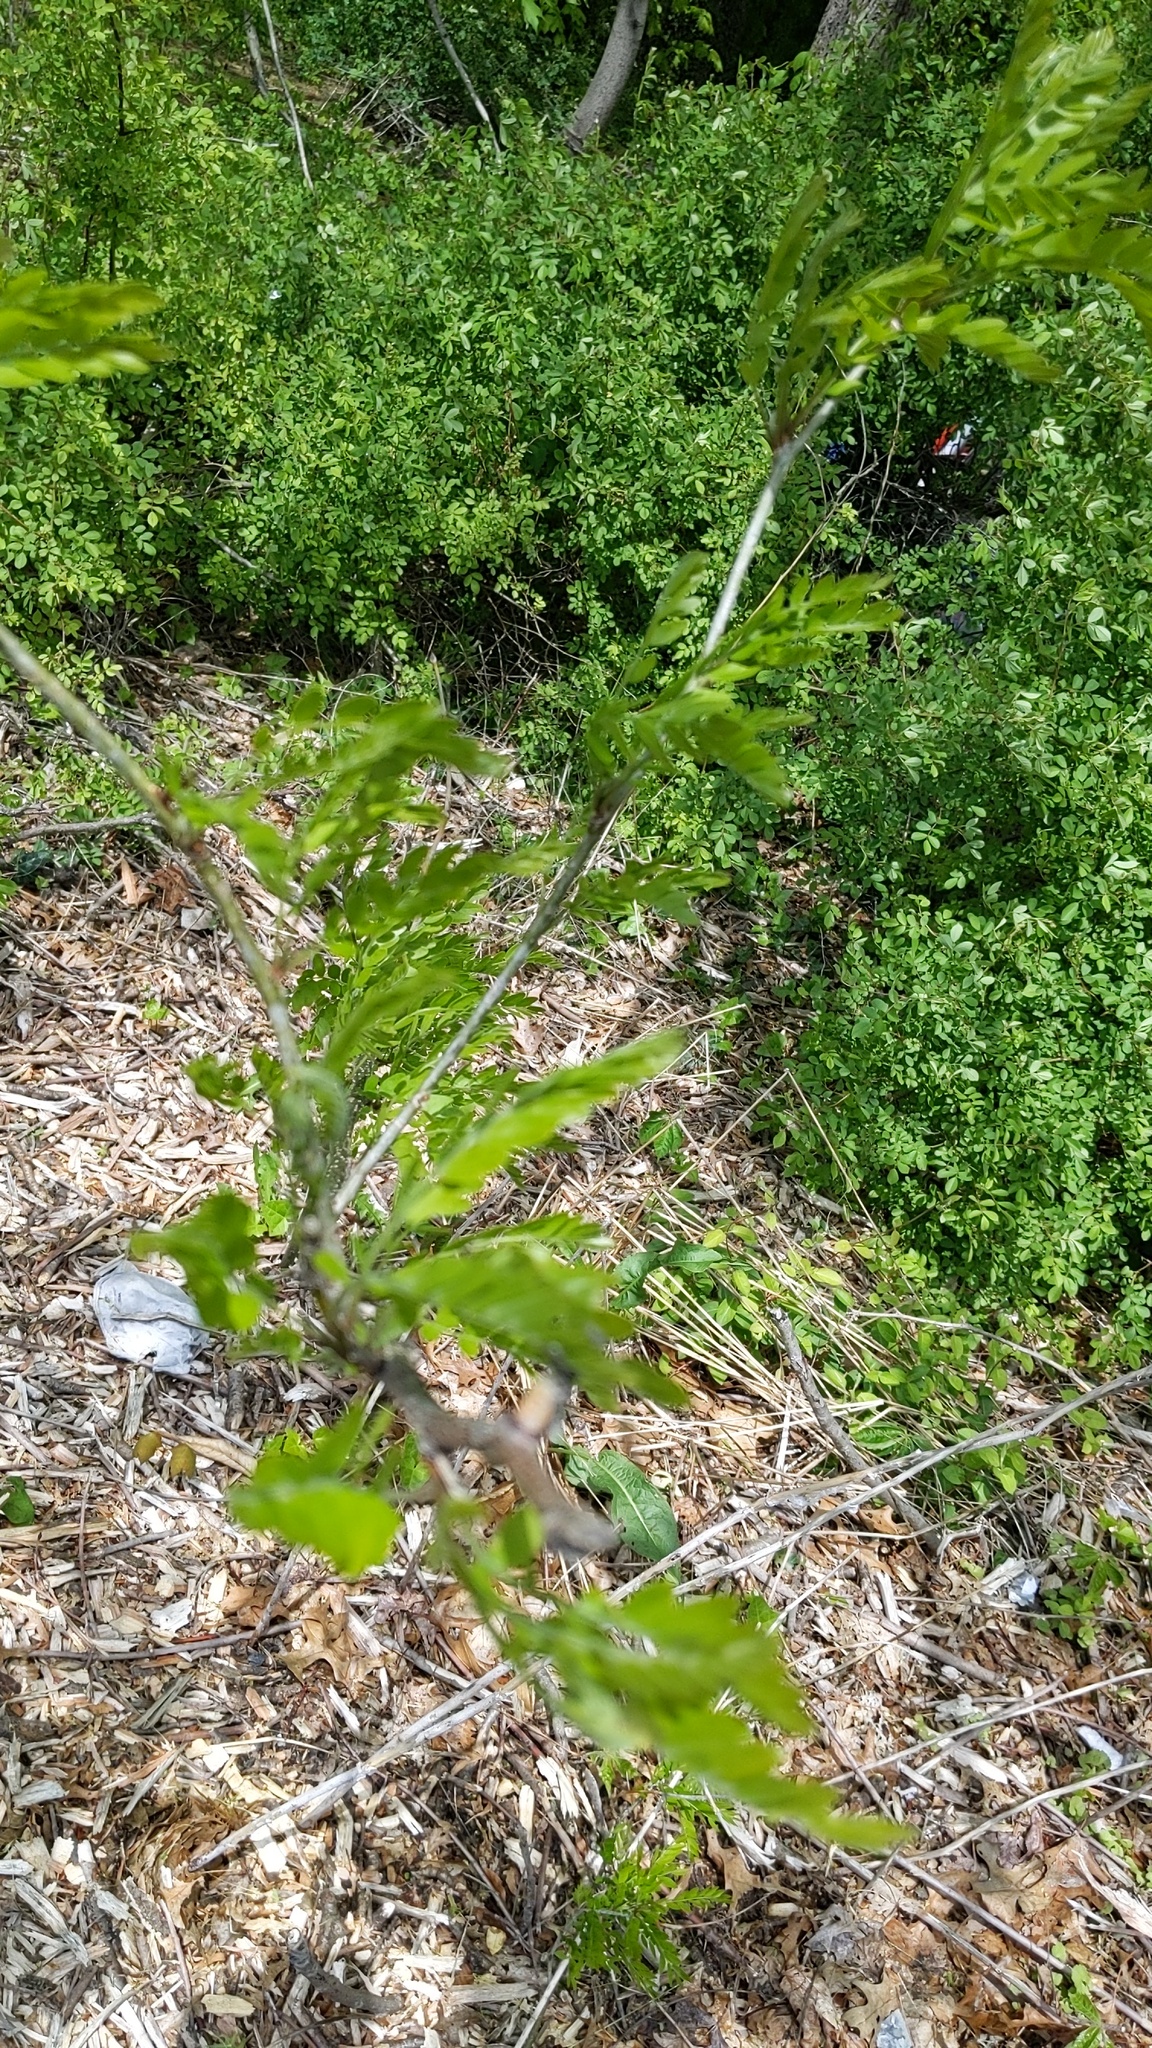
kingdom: Plantae
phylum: Tracheophyta
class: Magnoliopsida
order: Fabales
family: Fabaceae
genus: Gleditsia
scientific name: Gleditsia triacanthos
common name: Common honeylocust
